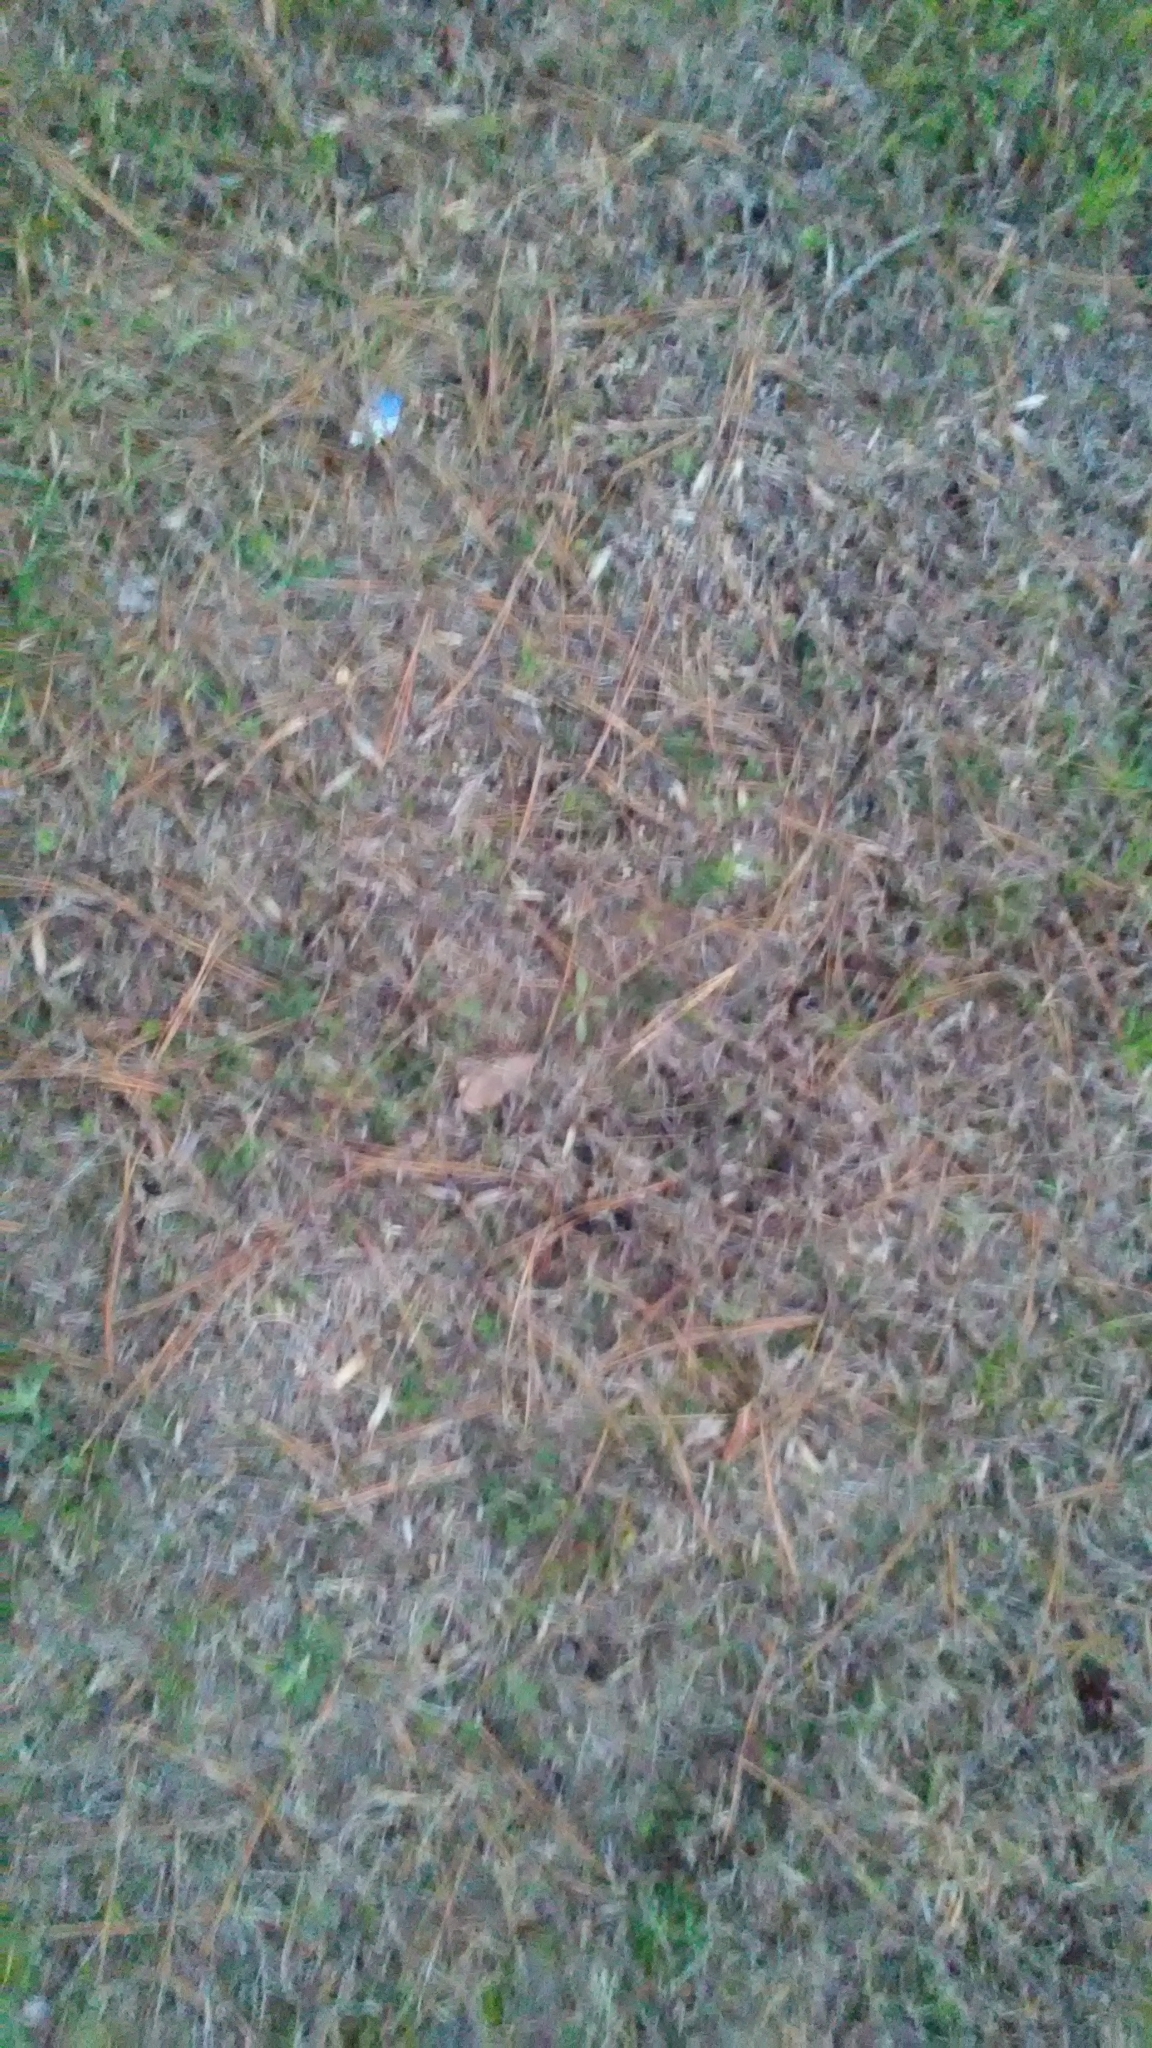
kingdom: Fungi
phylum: Ascomycota
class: Pezizomycetes
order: Pezizales
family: Helvellaceae
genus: Helvella
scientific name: Helvella acetabulum
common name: Vinegar cup
